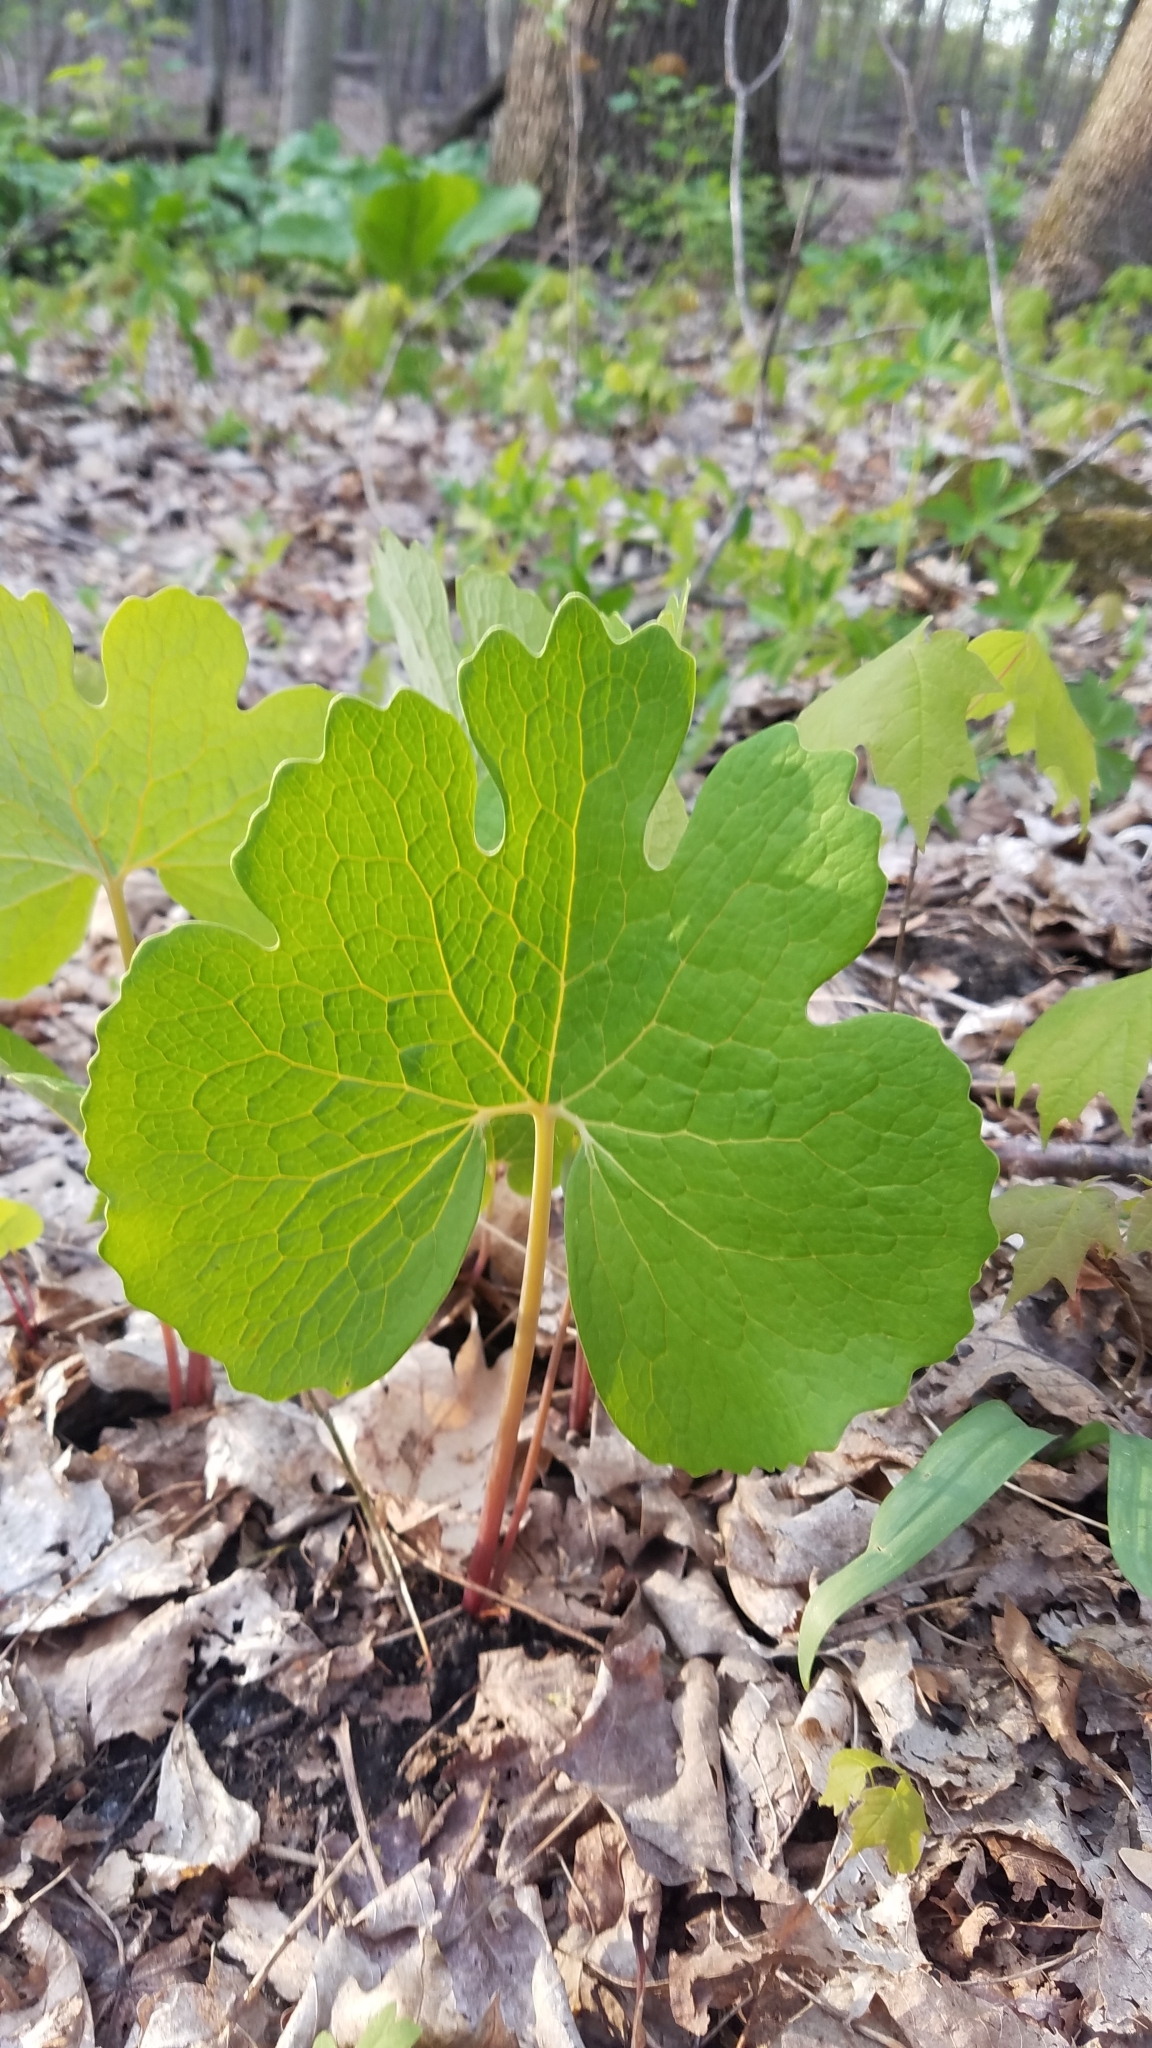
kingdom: Plantae
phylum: Tracheophyta
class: Magnoliopsida
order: Ranunculales
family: Papaveraceae
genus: Sanguinaria
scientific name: Sanguinaria canadensis
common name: Bloodroot
